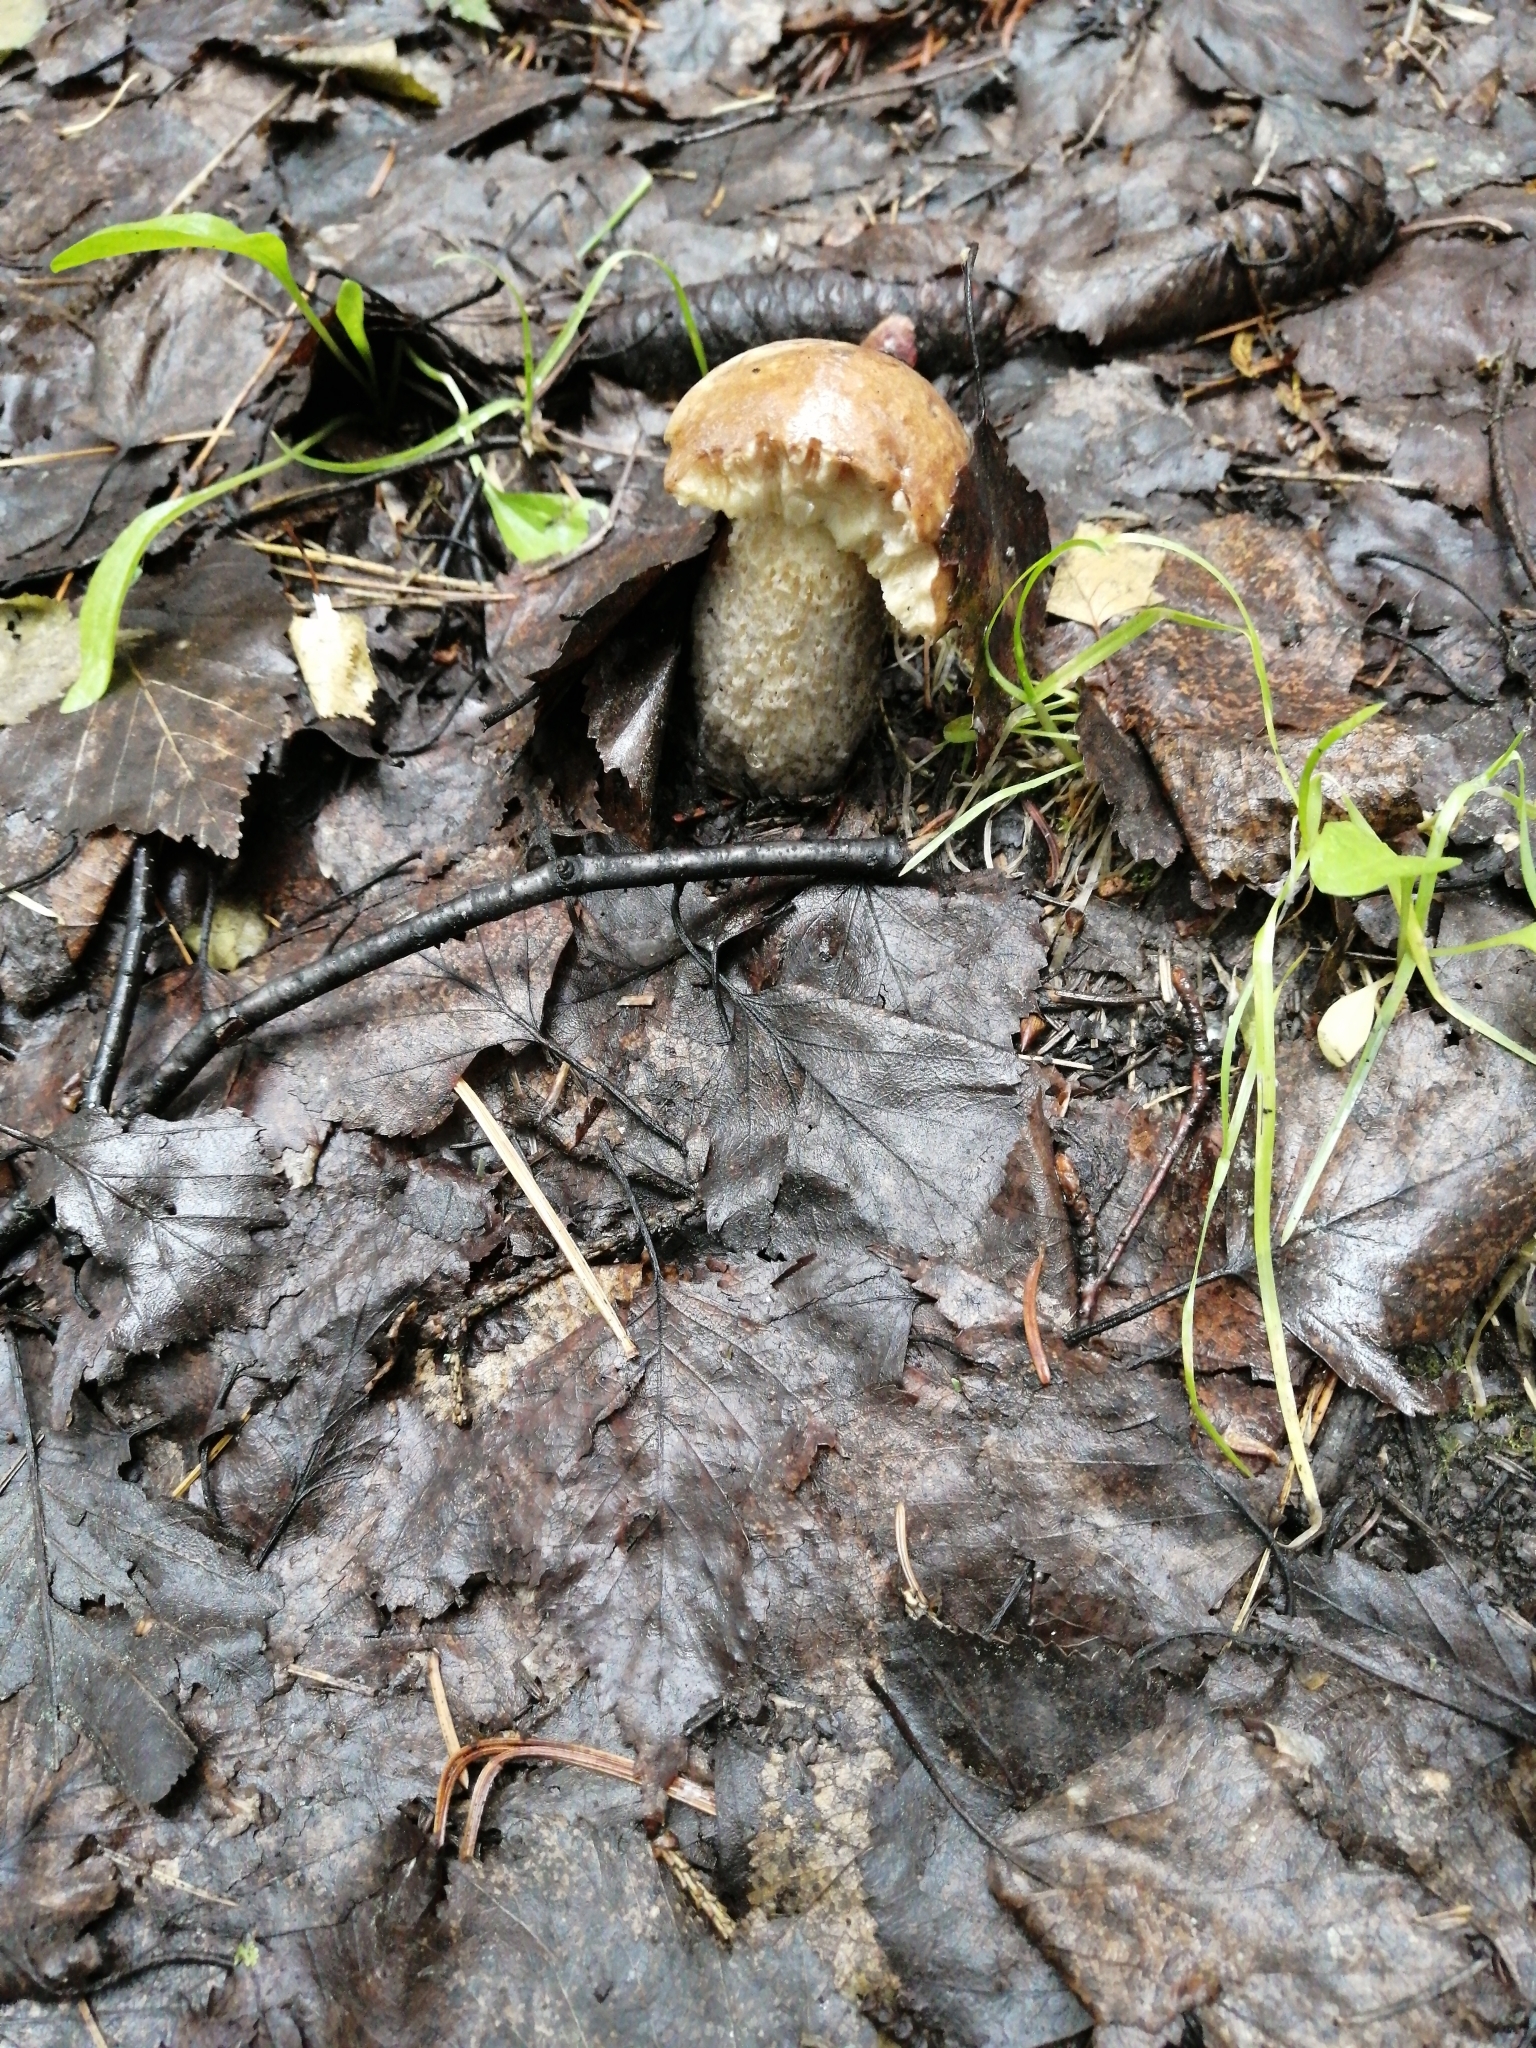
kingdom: Fungi
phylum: Basidiomycota
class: Agaricomycetes
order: Boletales
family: Boletaceae
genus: Leccinum
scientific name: Leccinum scabrum
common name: Blushing bolete
